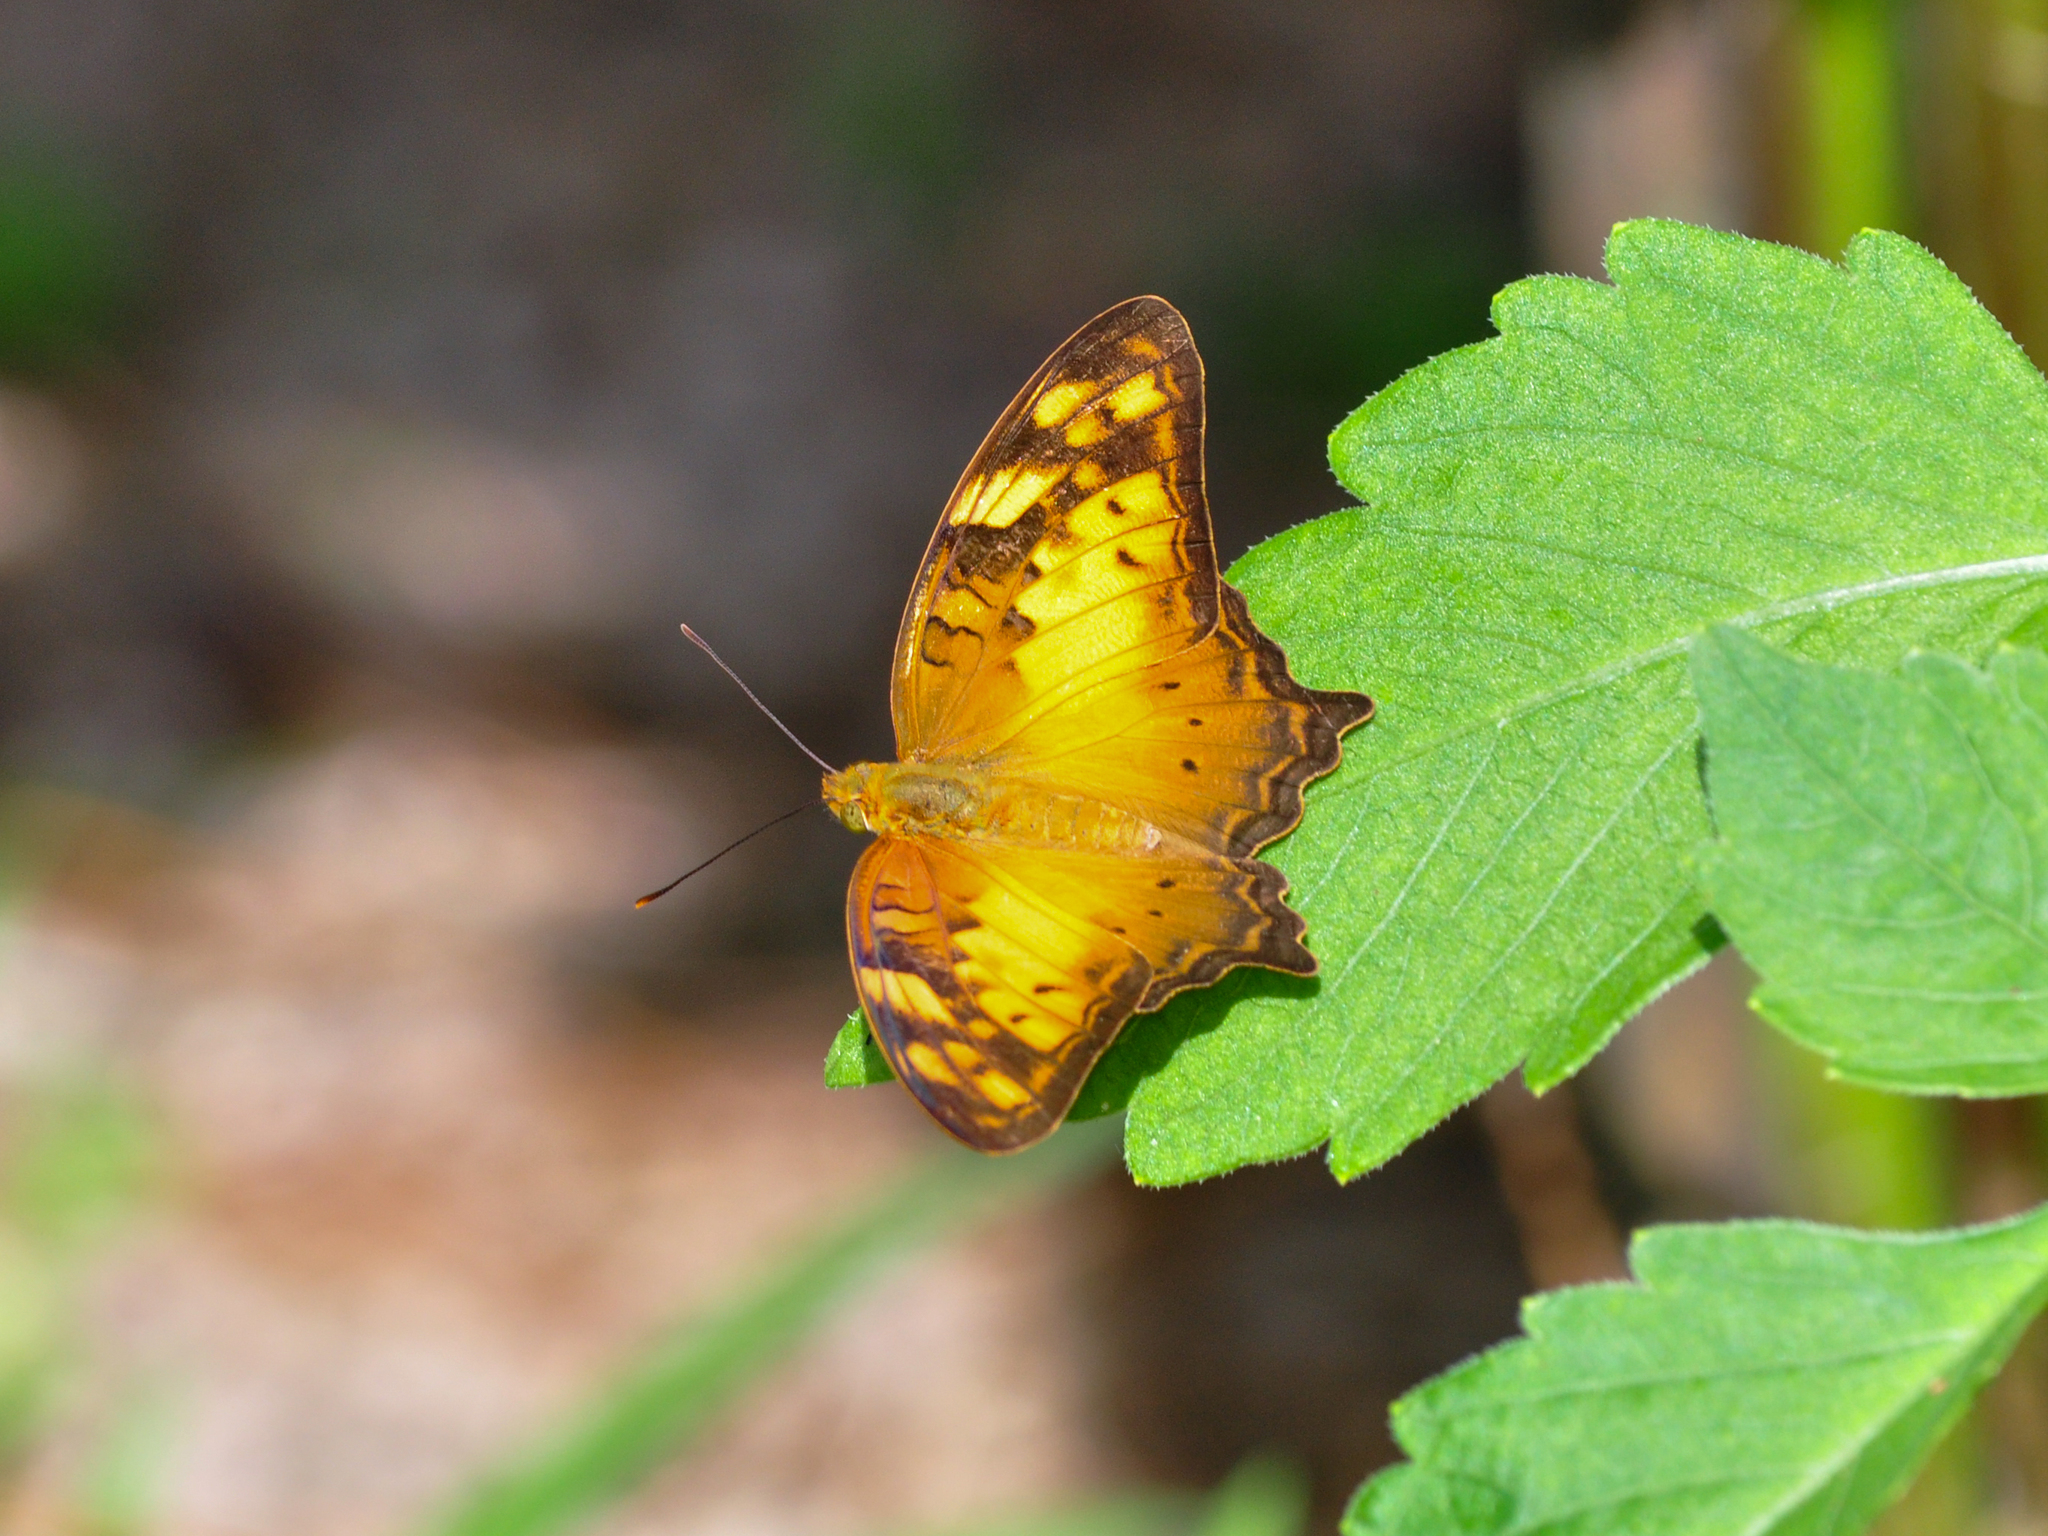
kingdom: Animalia
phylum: Arthropoda
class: Insecta
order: Lepidoptera
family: Nymphalidae
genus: Vagrans
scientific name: Vagrans egista
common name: Tailed rustic
